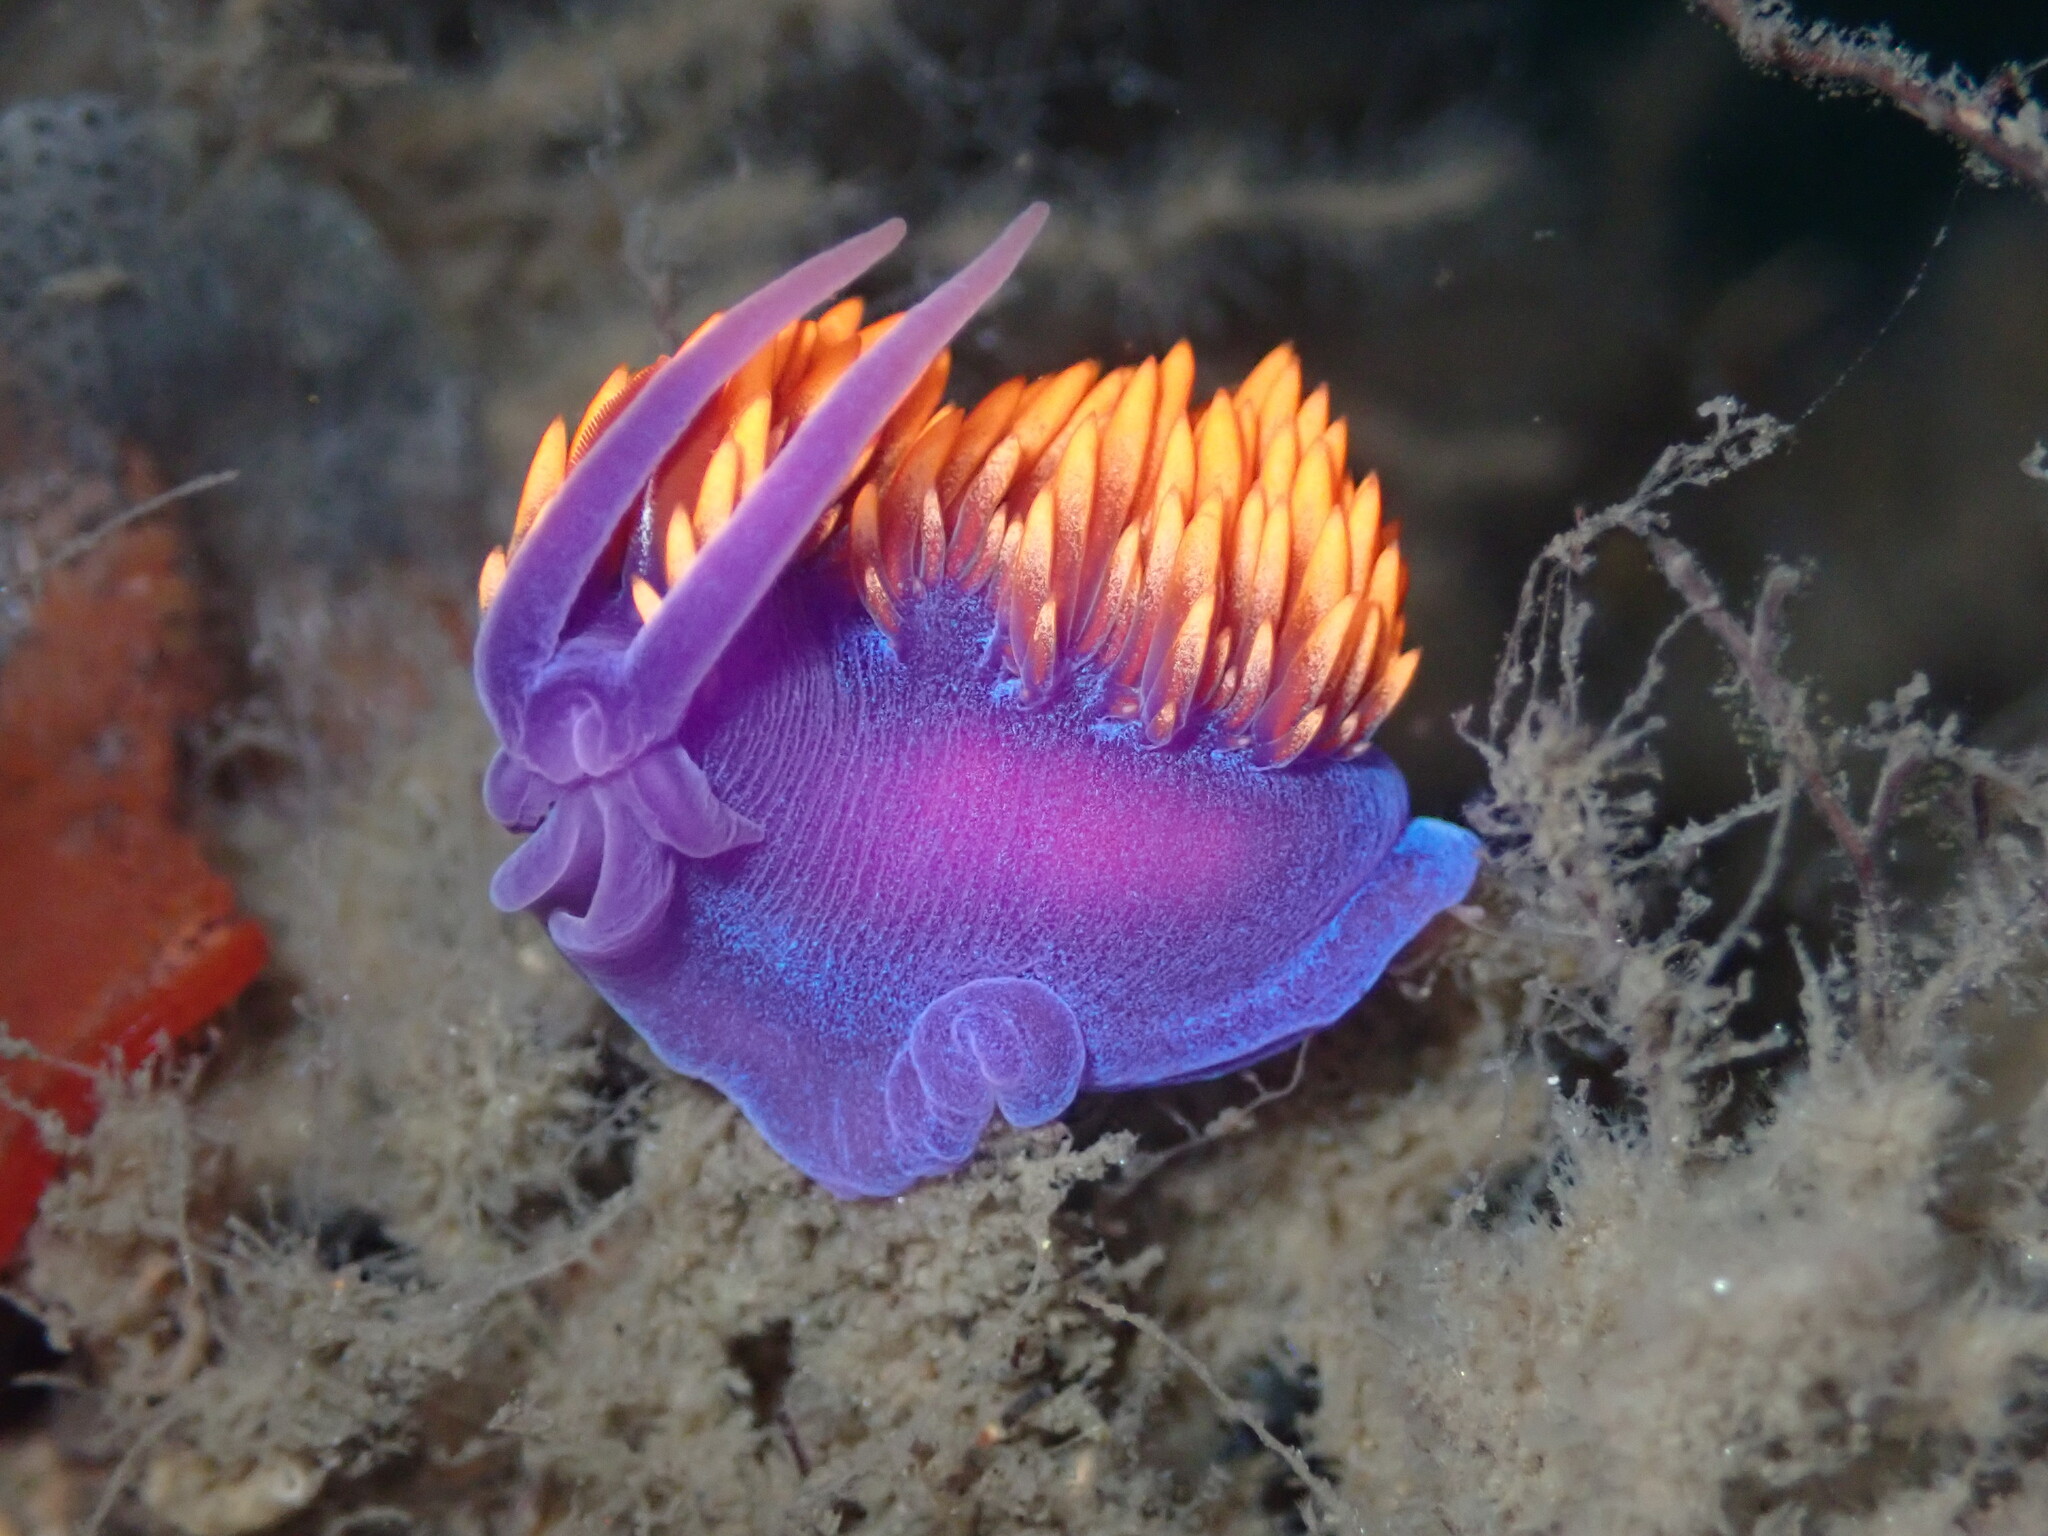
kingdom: Animalia
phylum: Mollusca
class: Gastropoda
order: Nudibranchia
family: Flabellinopsidae
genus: Flabellinopsis
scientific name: Flabellinopsis iodinea
